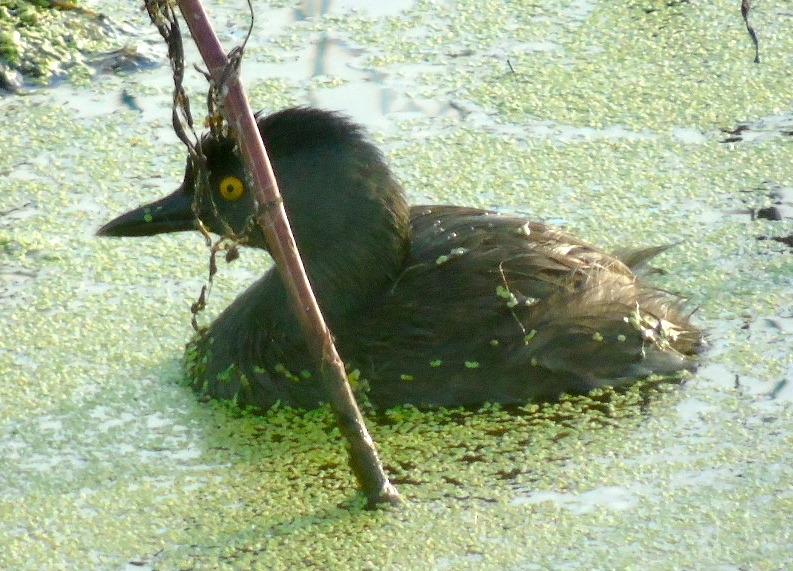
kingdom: Animalia
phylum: Chordata
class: Aves
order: Podicipediformes
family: Podicipedidae
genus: Tachybaptus
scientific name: Tachybaptus dominicus
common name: Least grebe
